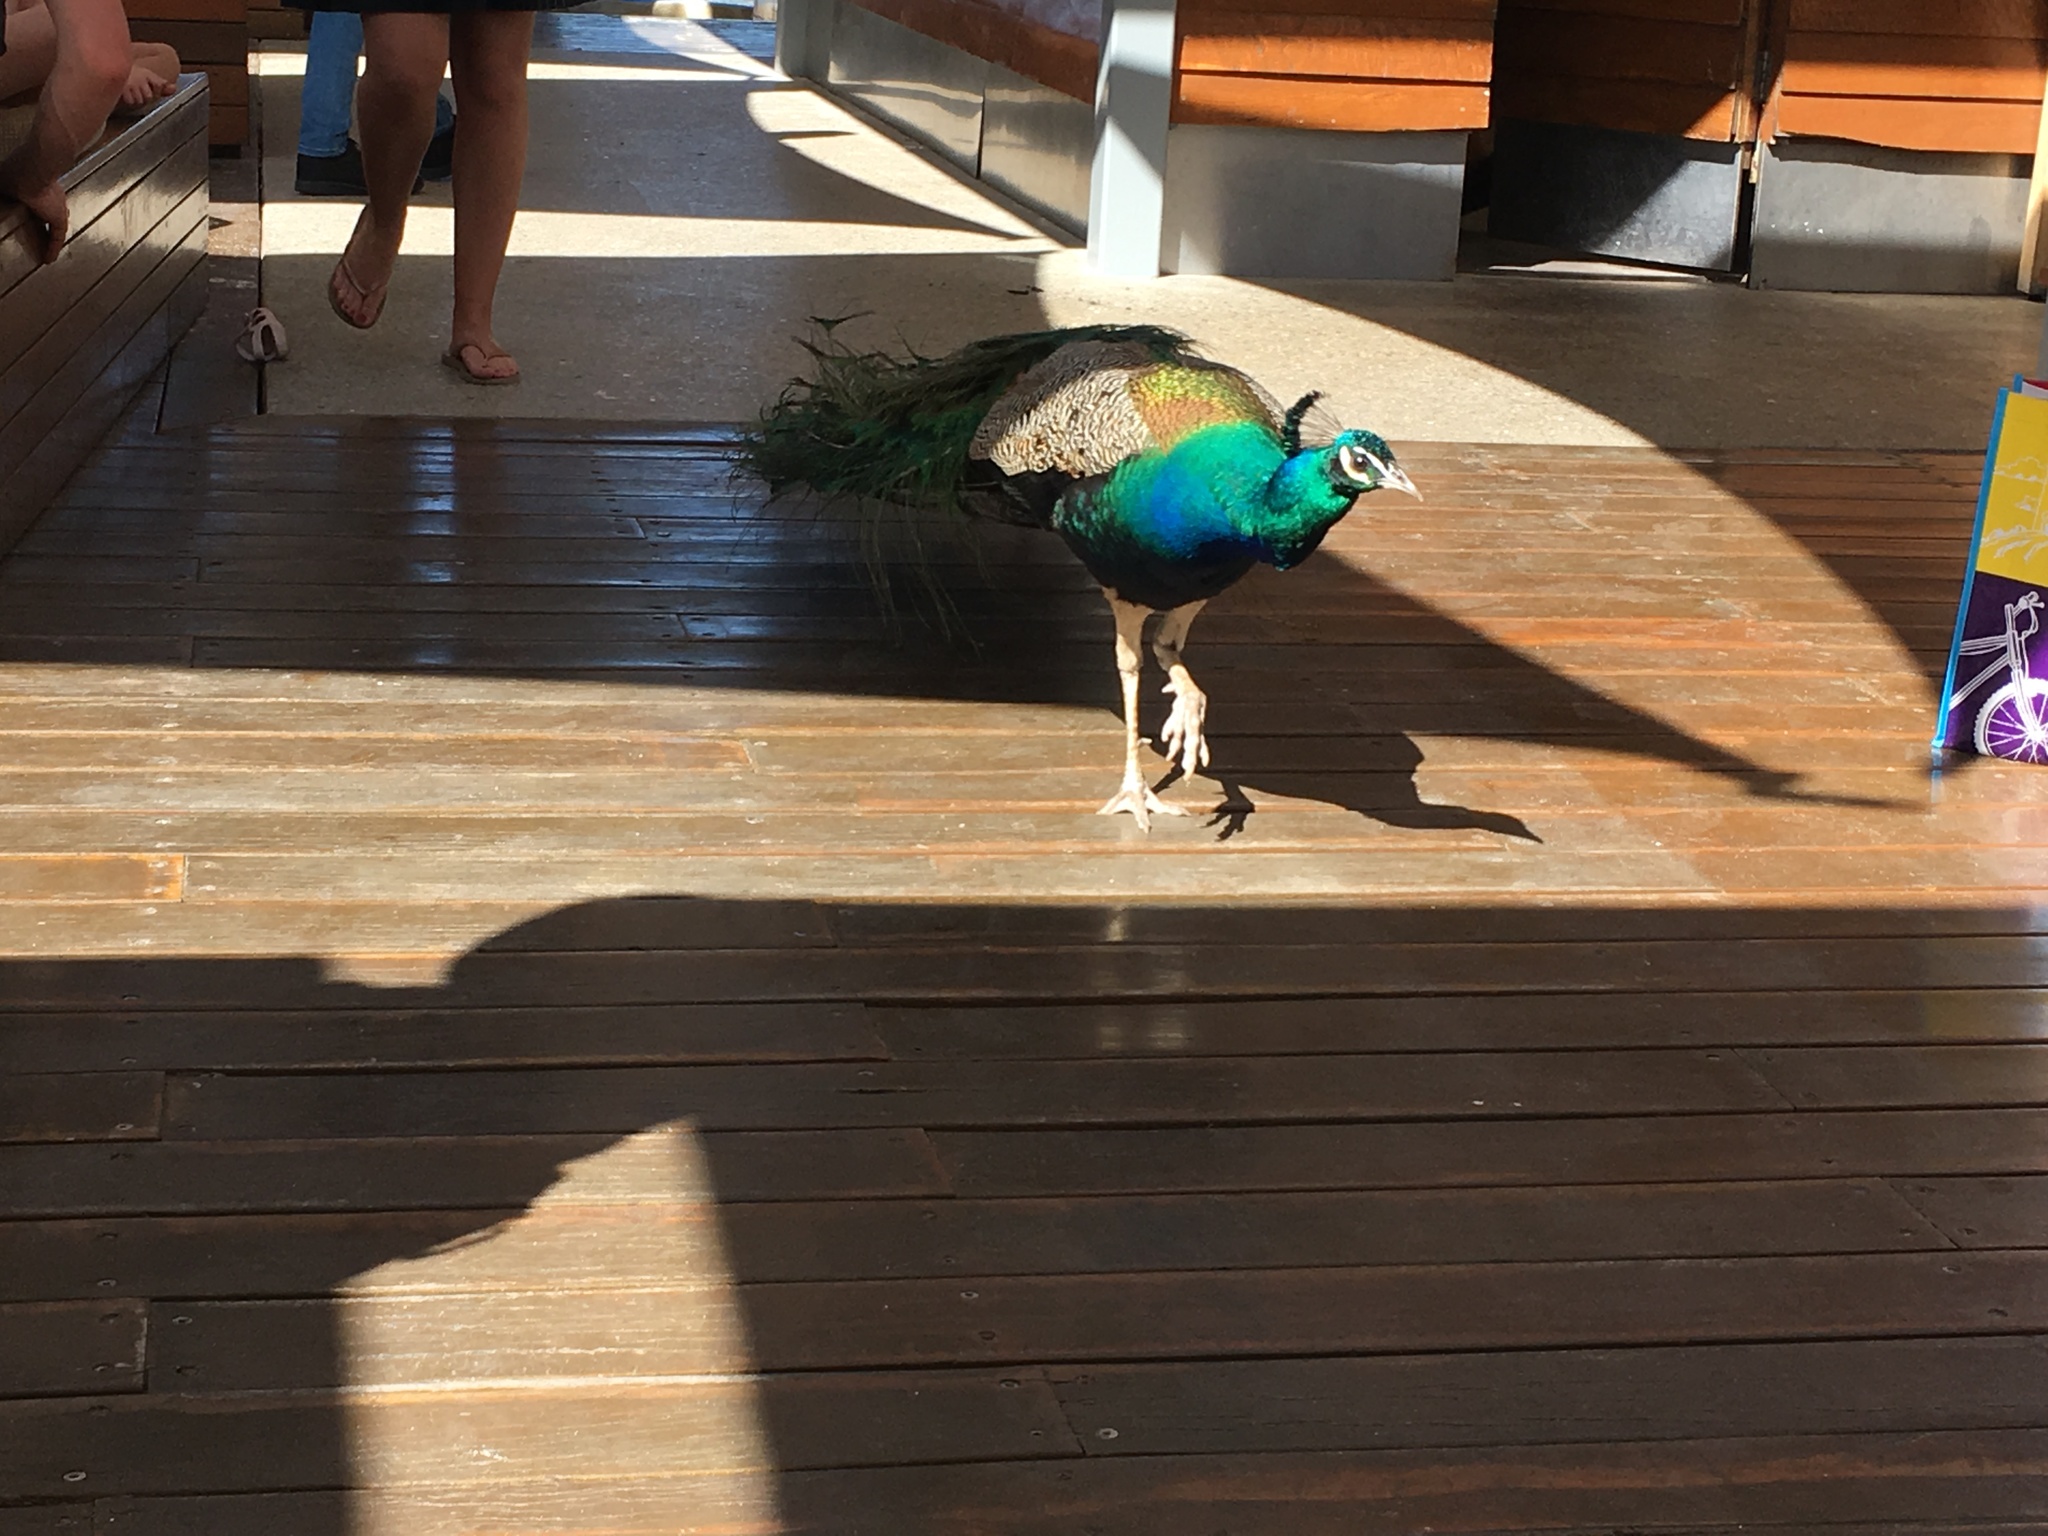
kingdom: Animalia
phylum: Chordata
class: Aves
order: Galliformes
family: Phasianidae
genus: Pavo
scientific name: Pavo cristatus
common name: Indian peafowl
